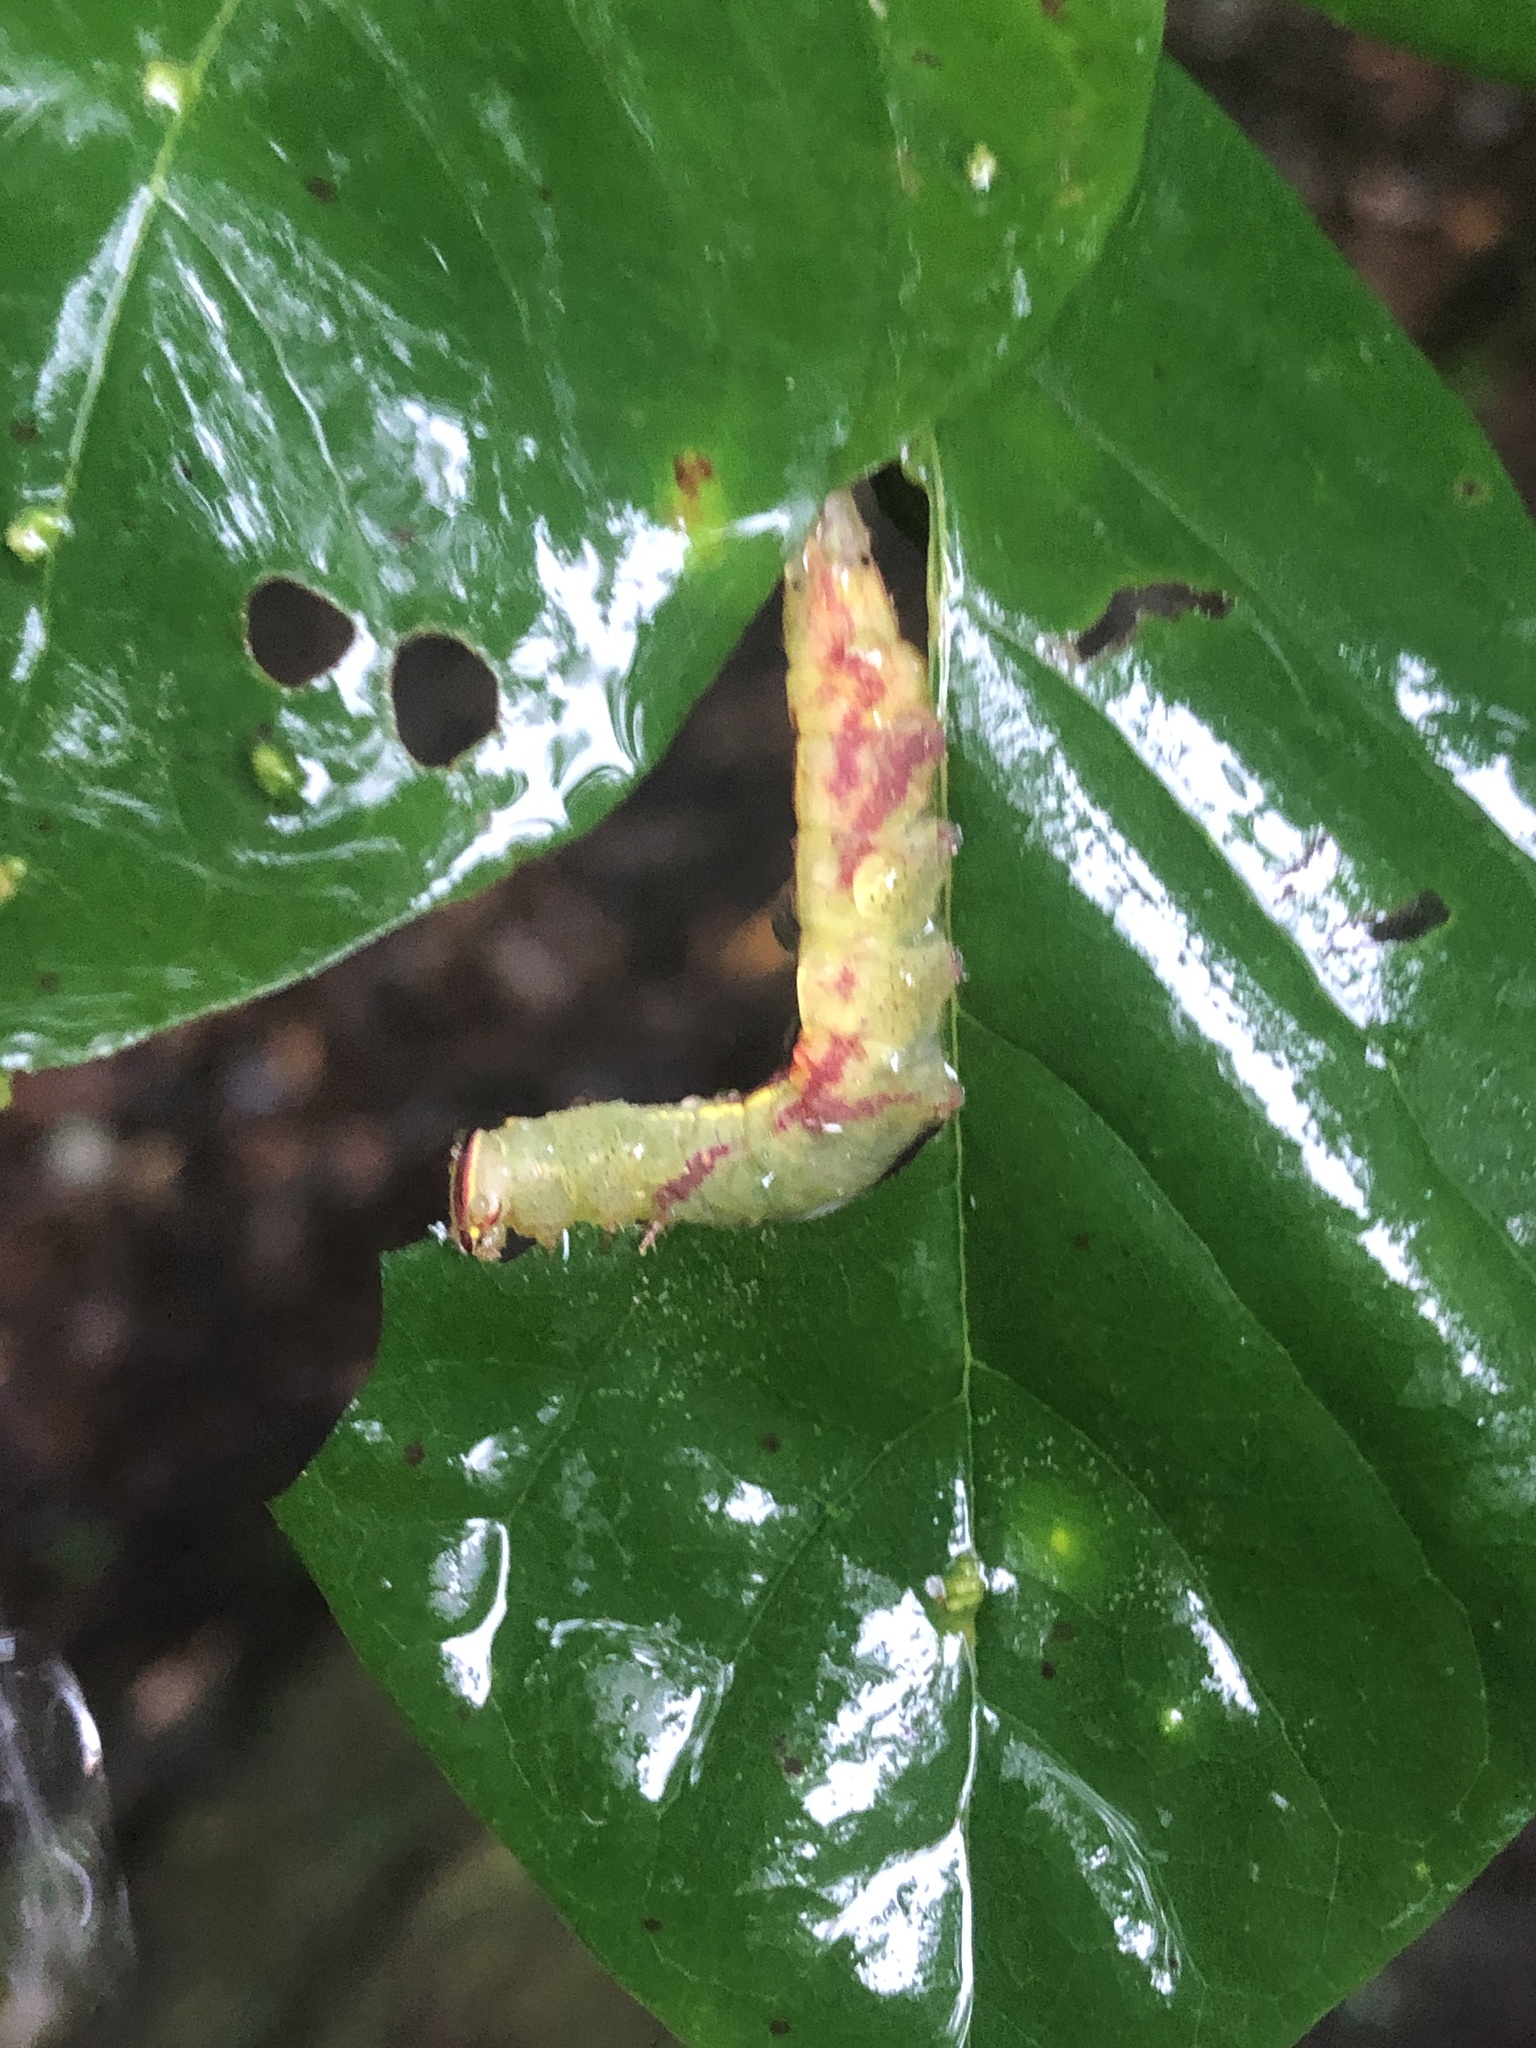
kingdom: Animalia
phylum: Arthropoda
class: Insecta
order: Lepidoptera
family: Notodontidae
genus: Disphragis
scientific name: Disphragis Cecrita guttivitta
